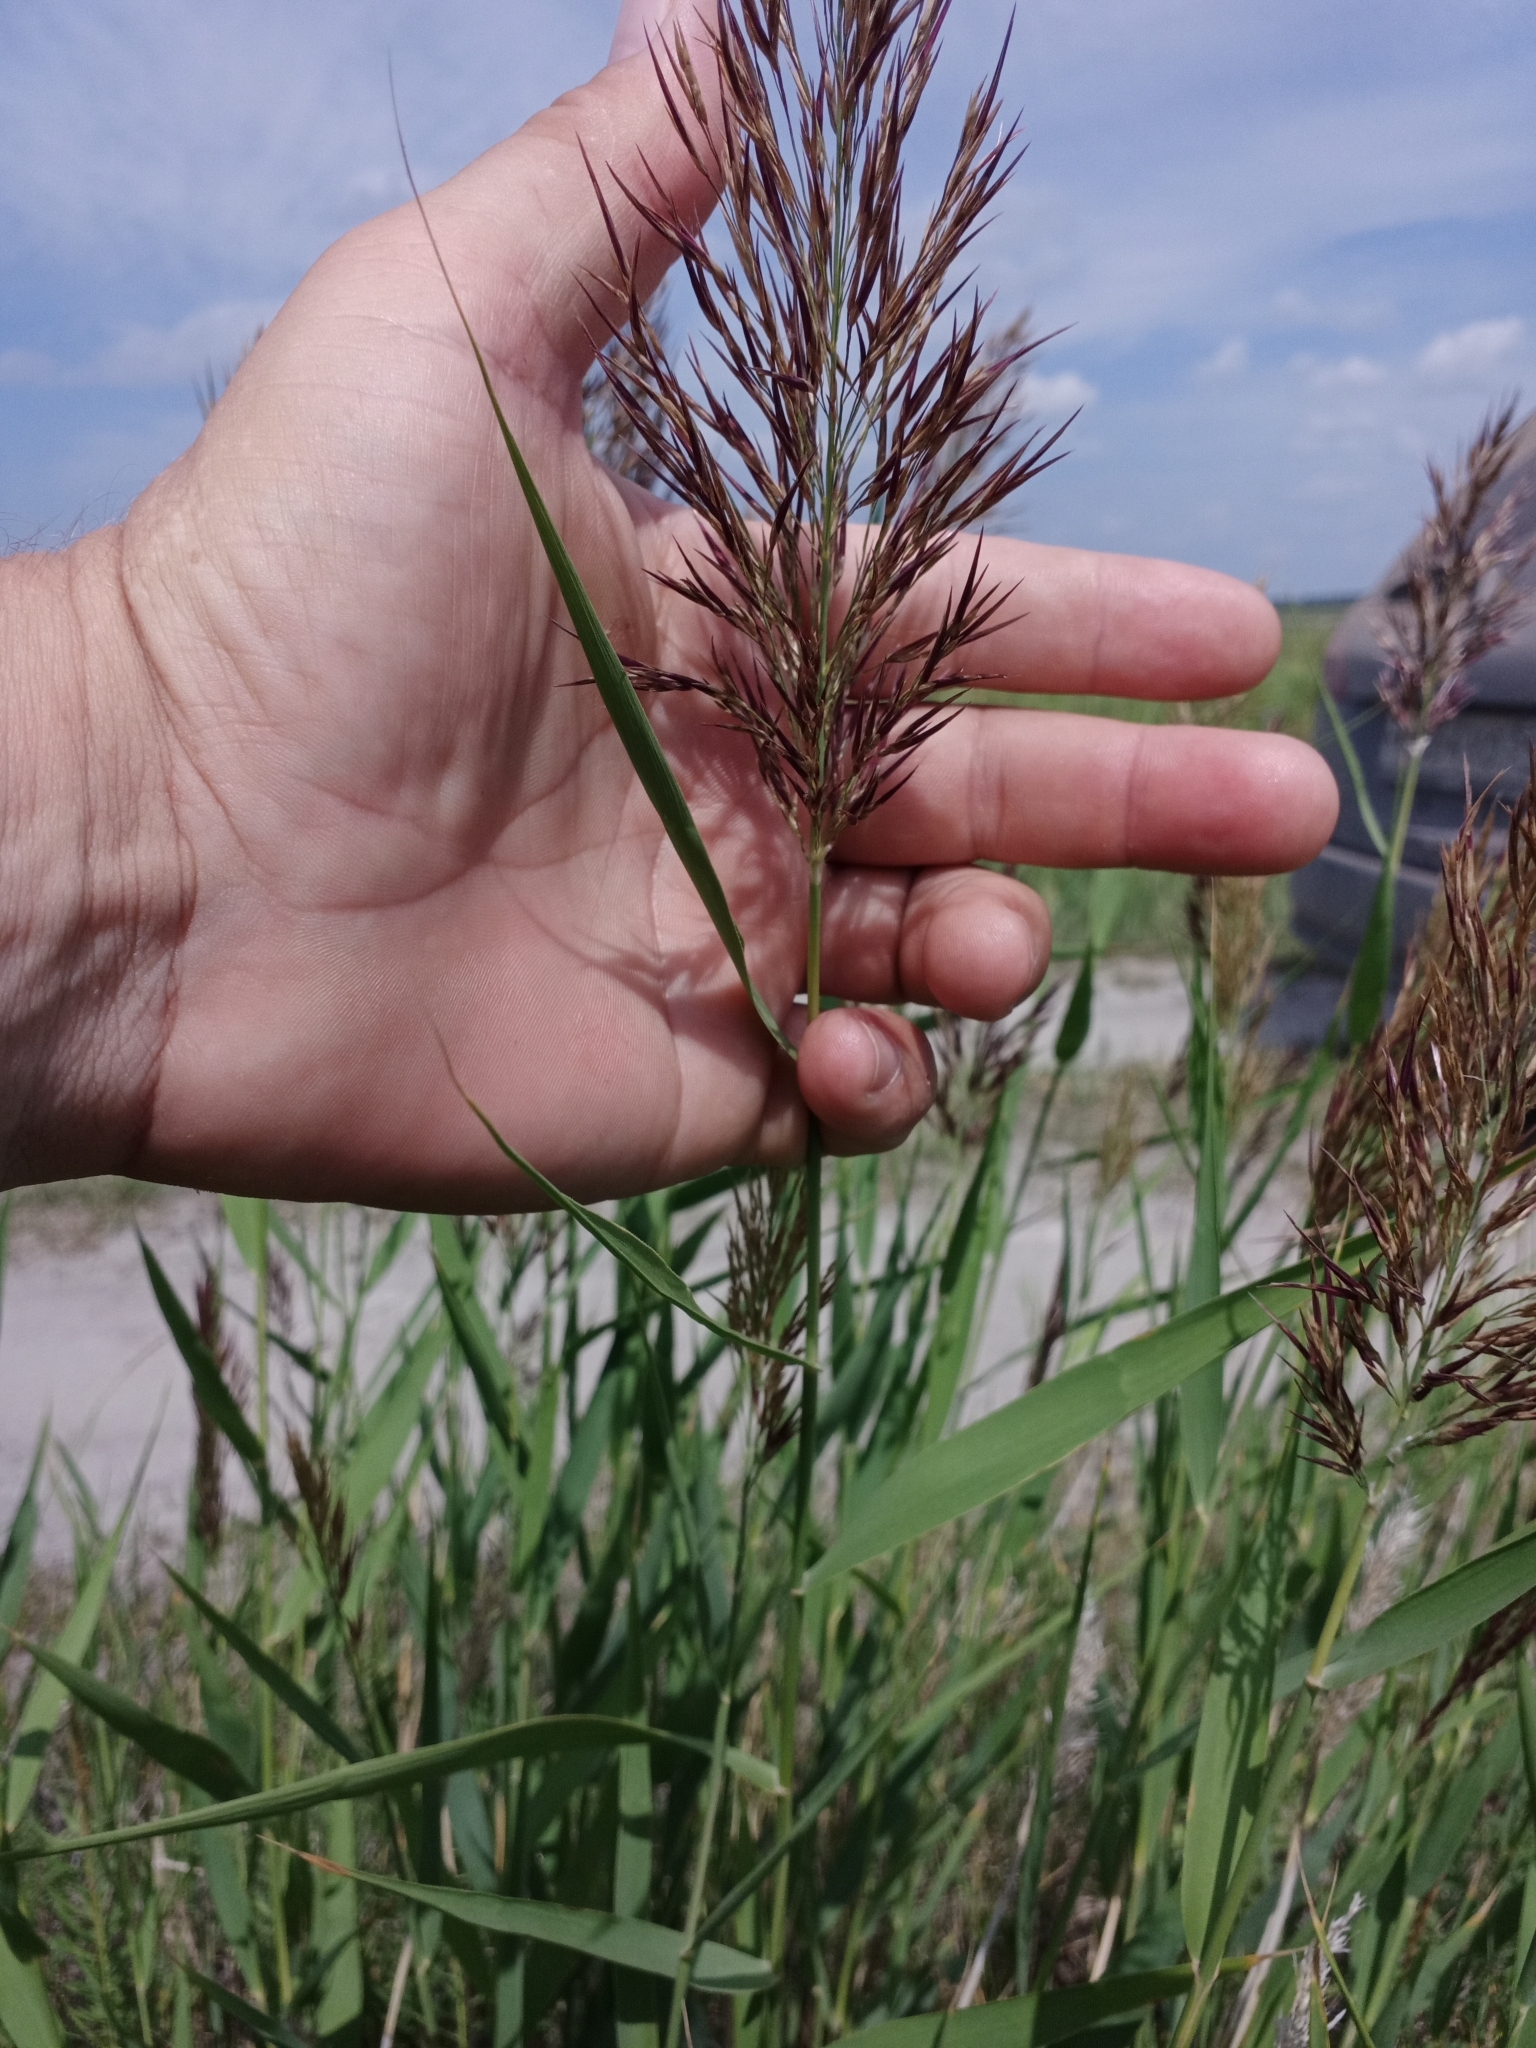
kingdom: Plantae
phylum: Tracheophyta
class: Liliopsida
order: Poales
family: Poaceae
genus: Phragmites
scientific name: Phragmites australis
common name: Common reed
